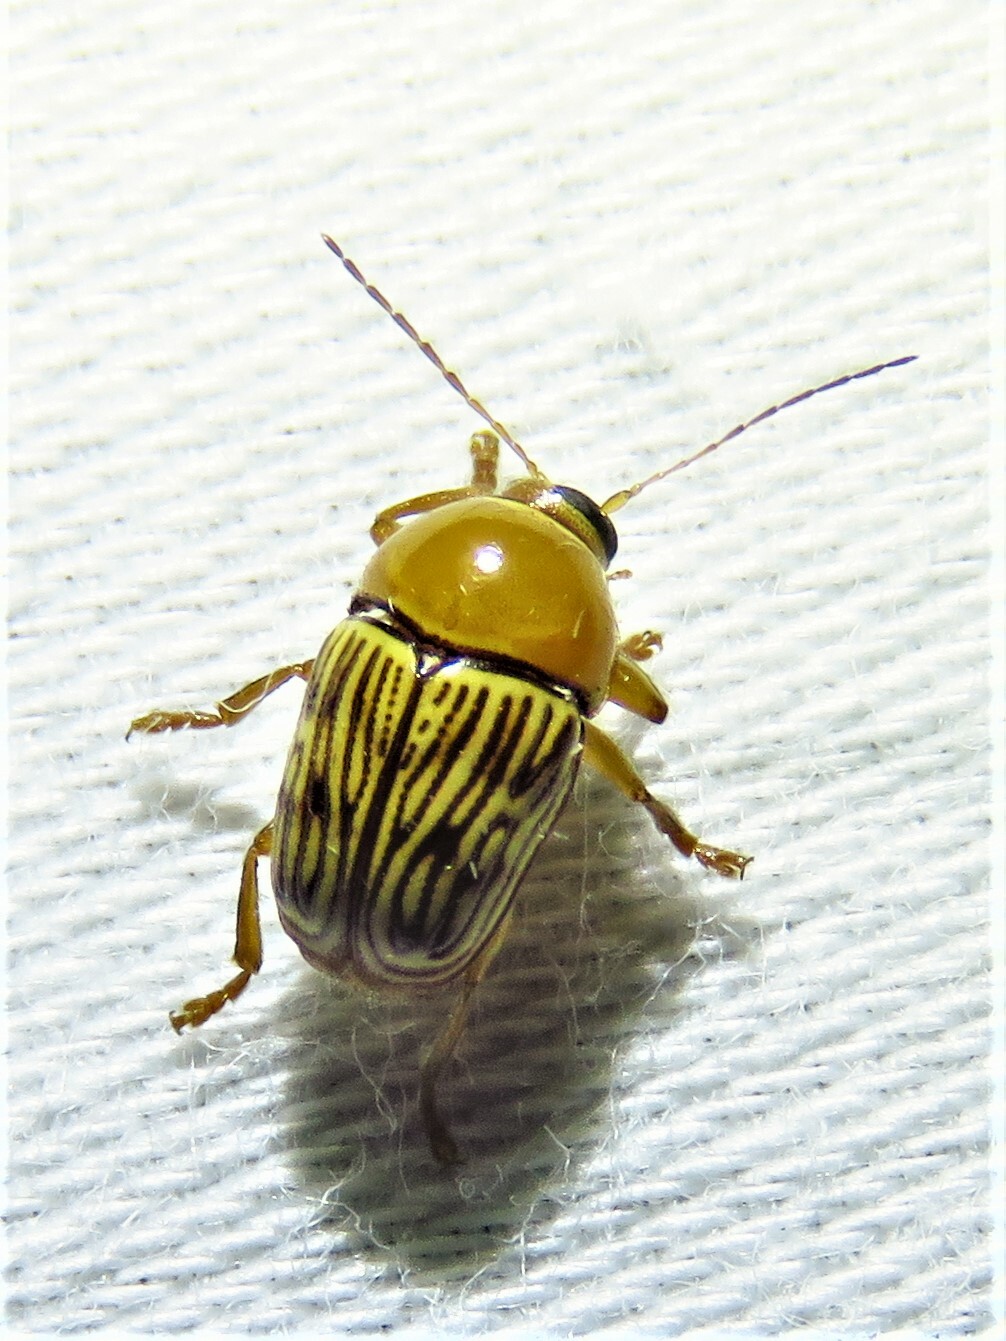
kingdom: Animalia
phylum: Arthropoda
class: Insecta
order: Coleoptera
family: Chrysomelidae
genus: Cryptocephalus
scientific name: Cryptocephalus fulguratus
